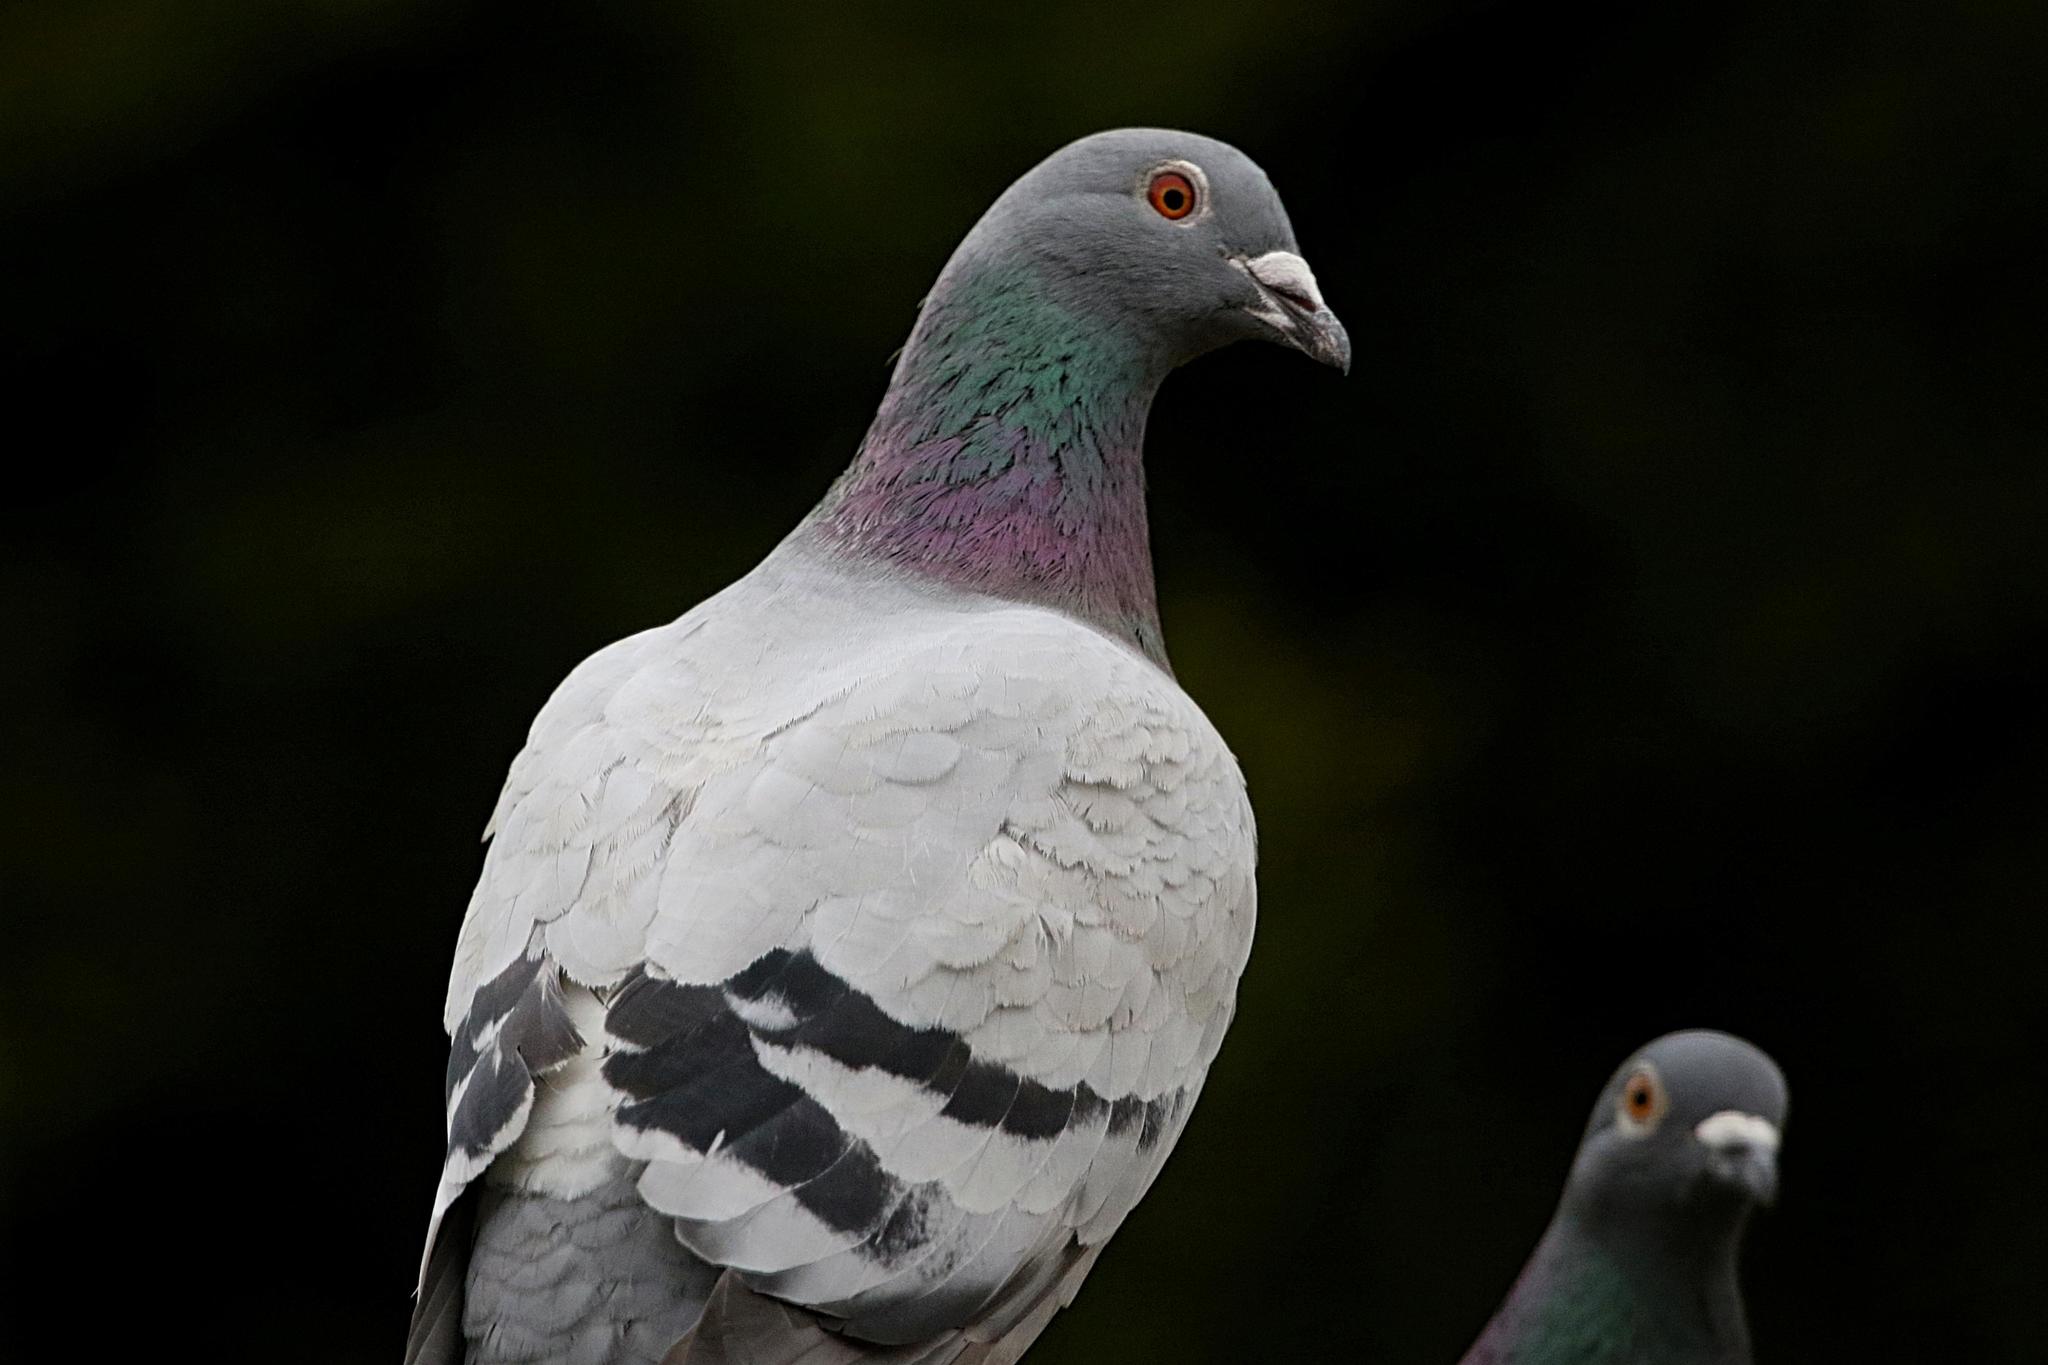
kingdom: Animalia
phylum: Chordata
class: Aves
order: Columbiformes
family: Columbidae
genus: Columba
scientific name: Columba livia
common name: Rock pigeon
